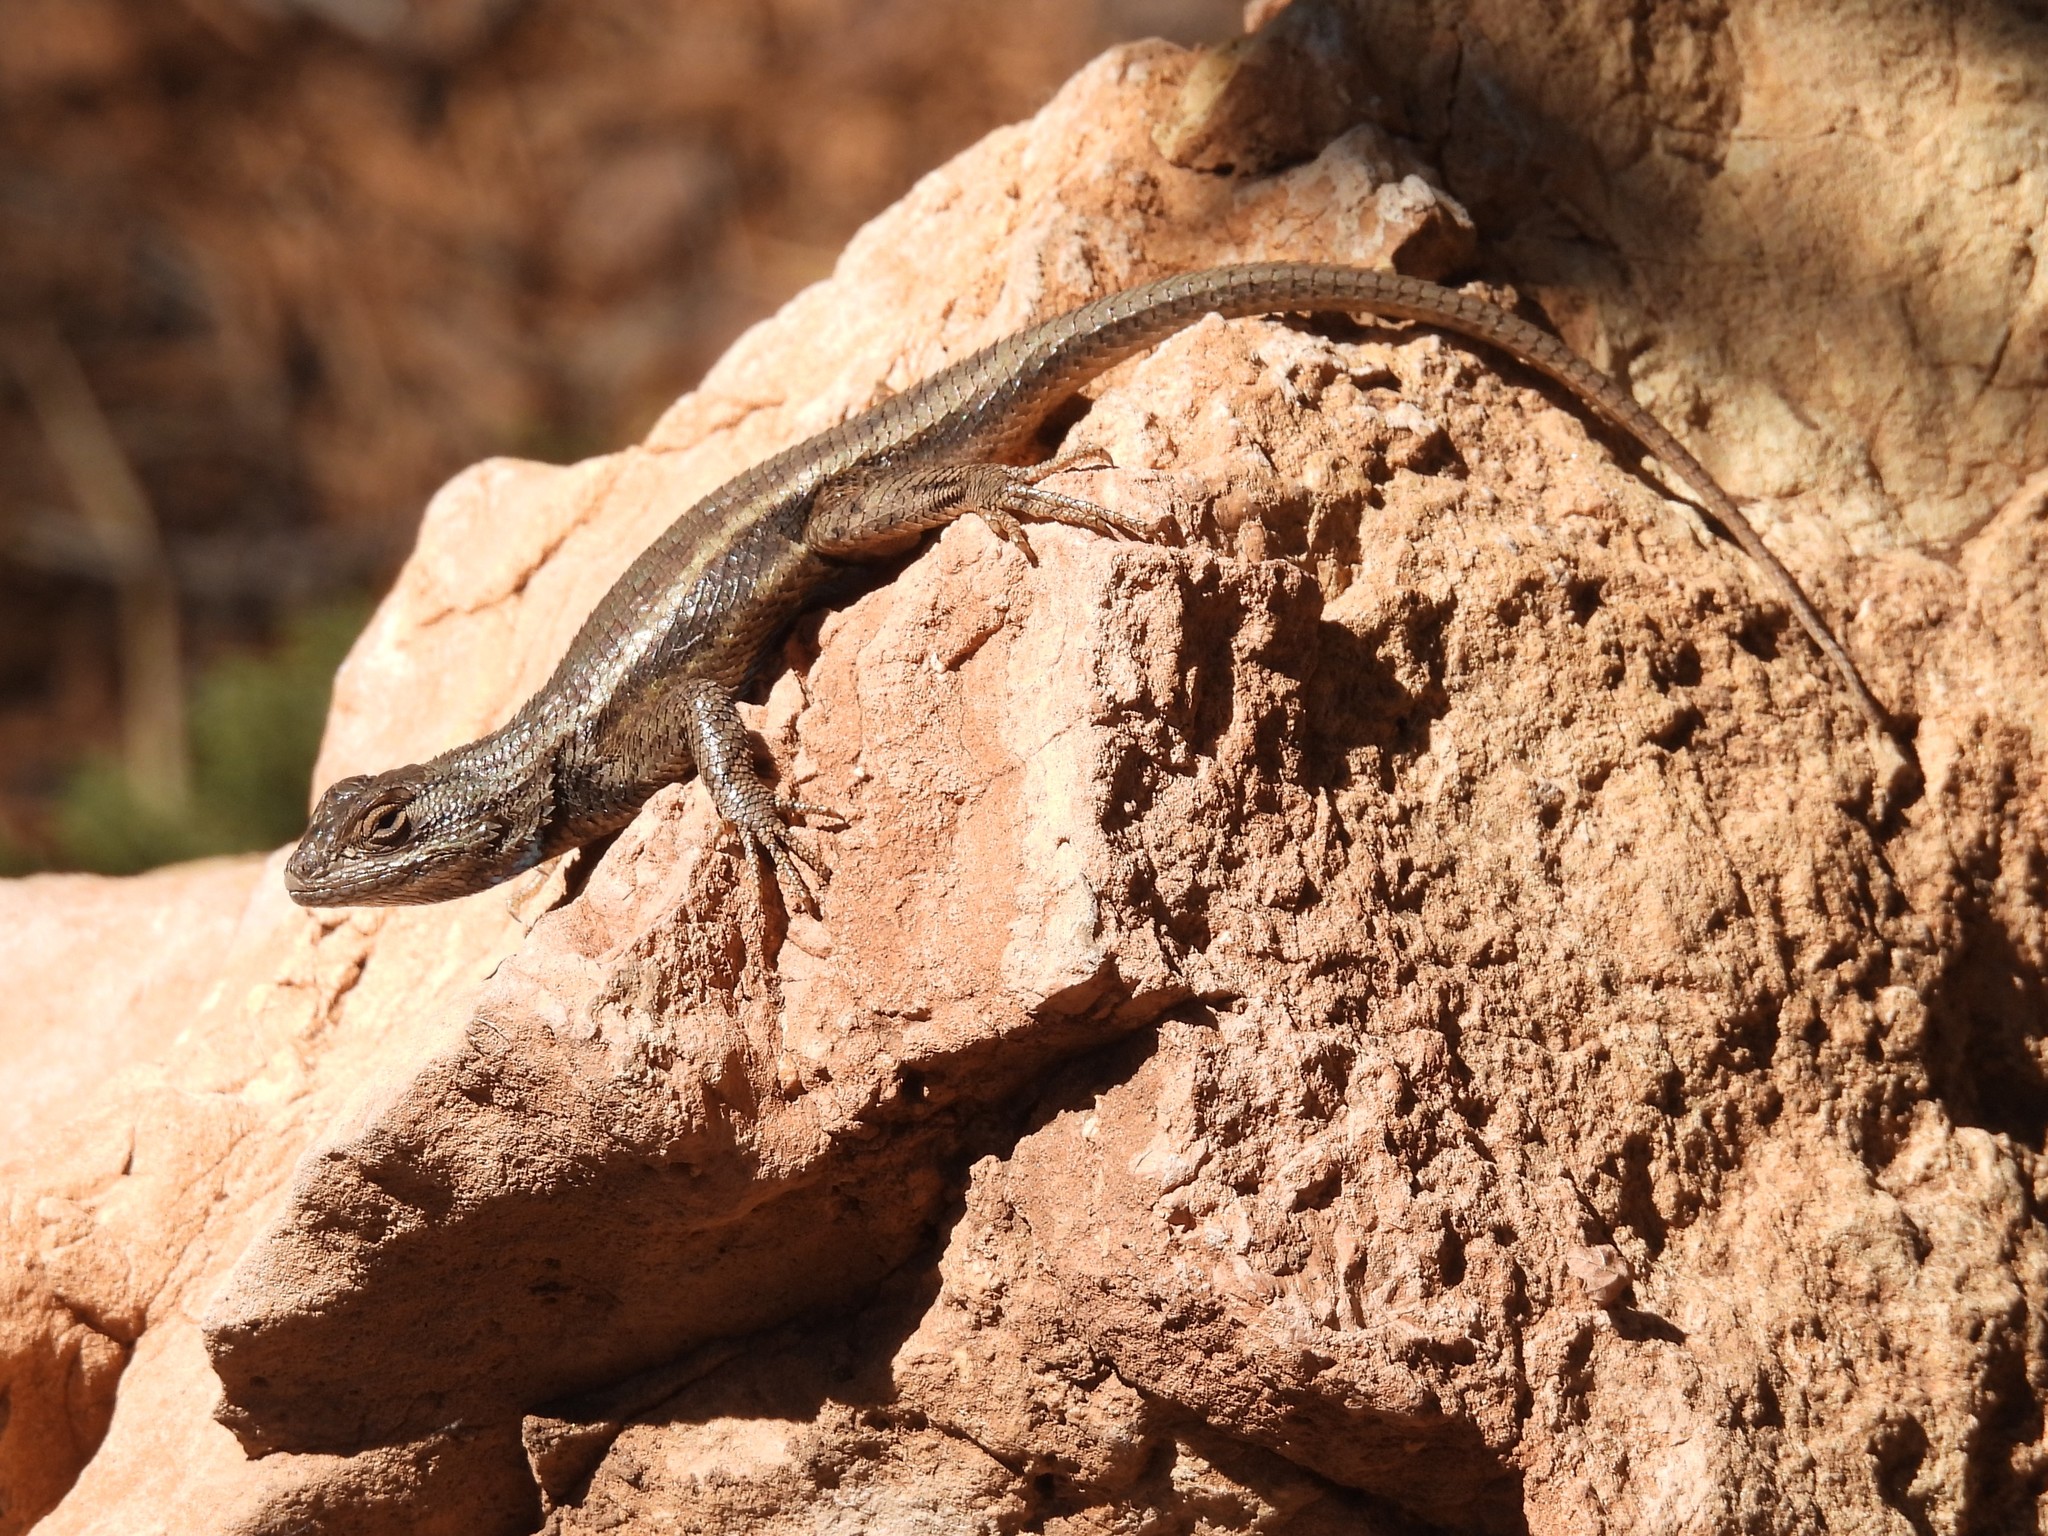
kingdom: Animalia
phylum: Chordata
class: Squamata
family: Phrynosomatidae
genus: Sceloporus
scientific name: Sceloporus tristichus
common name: Plateau fence lizard
